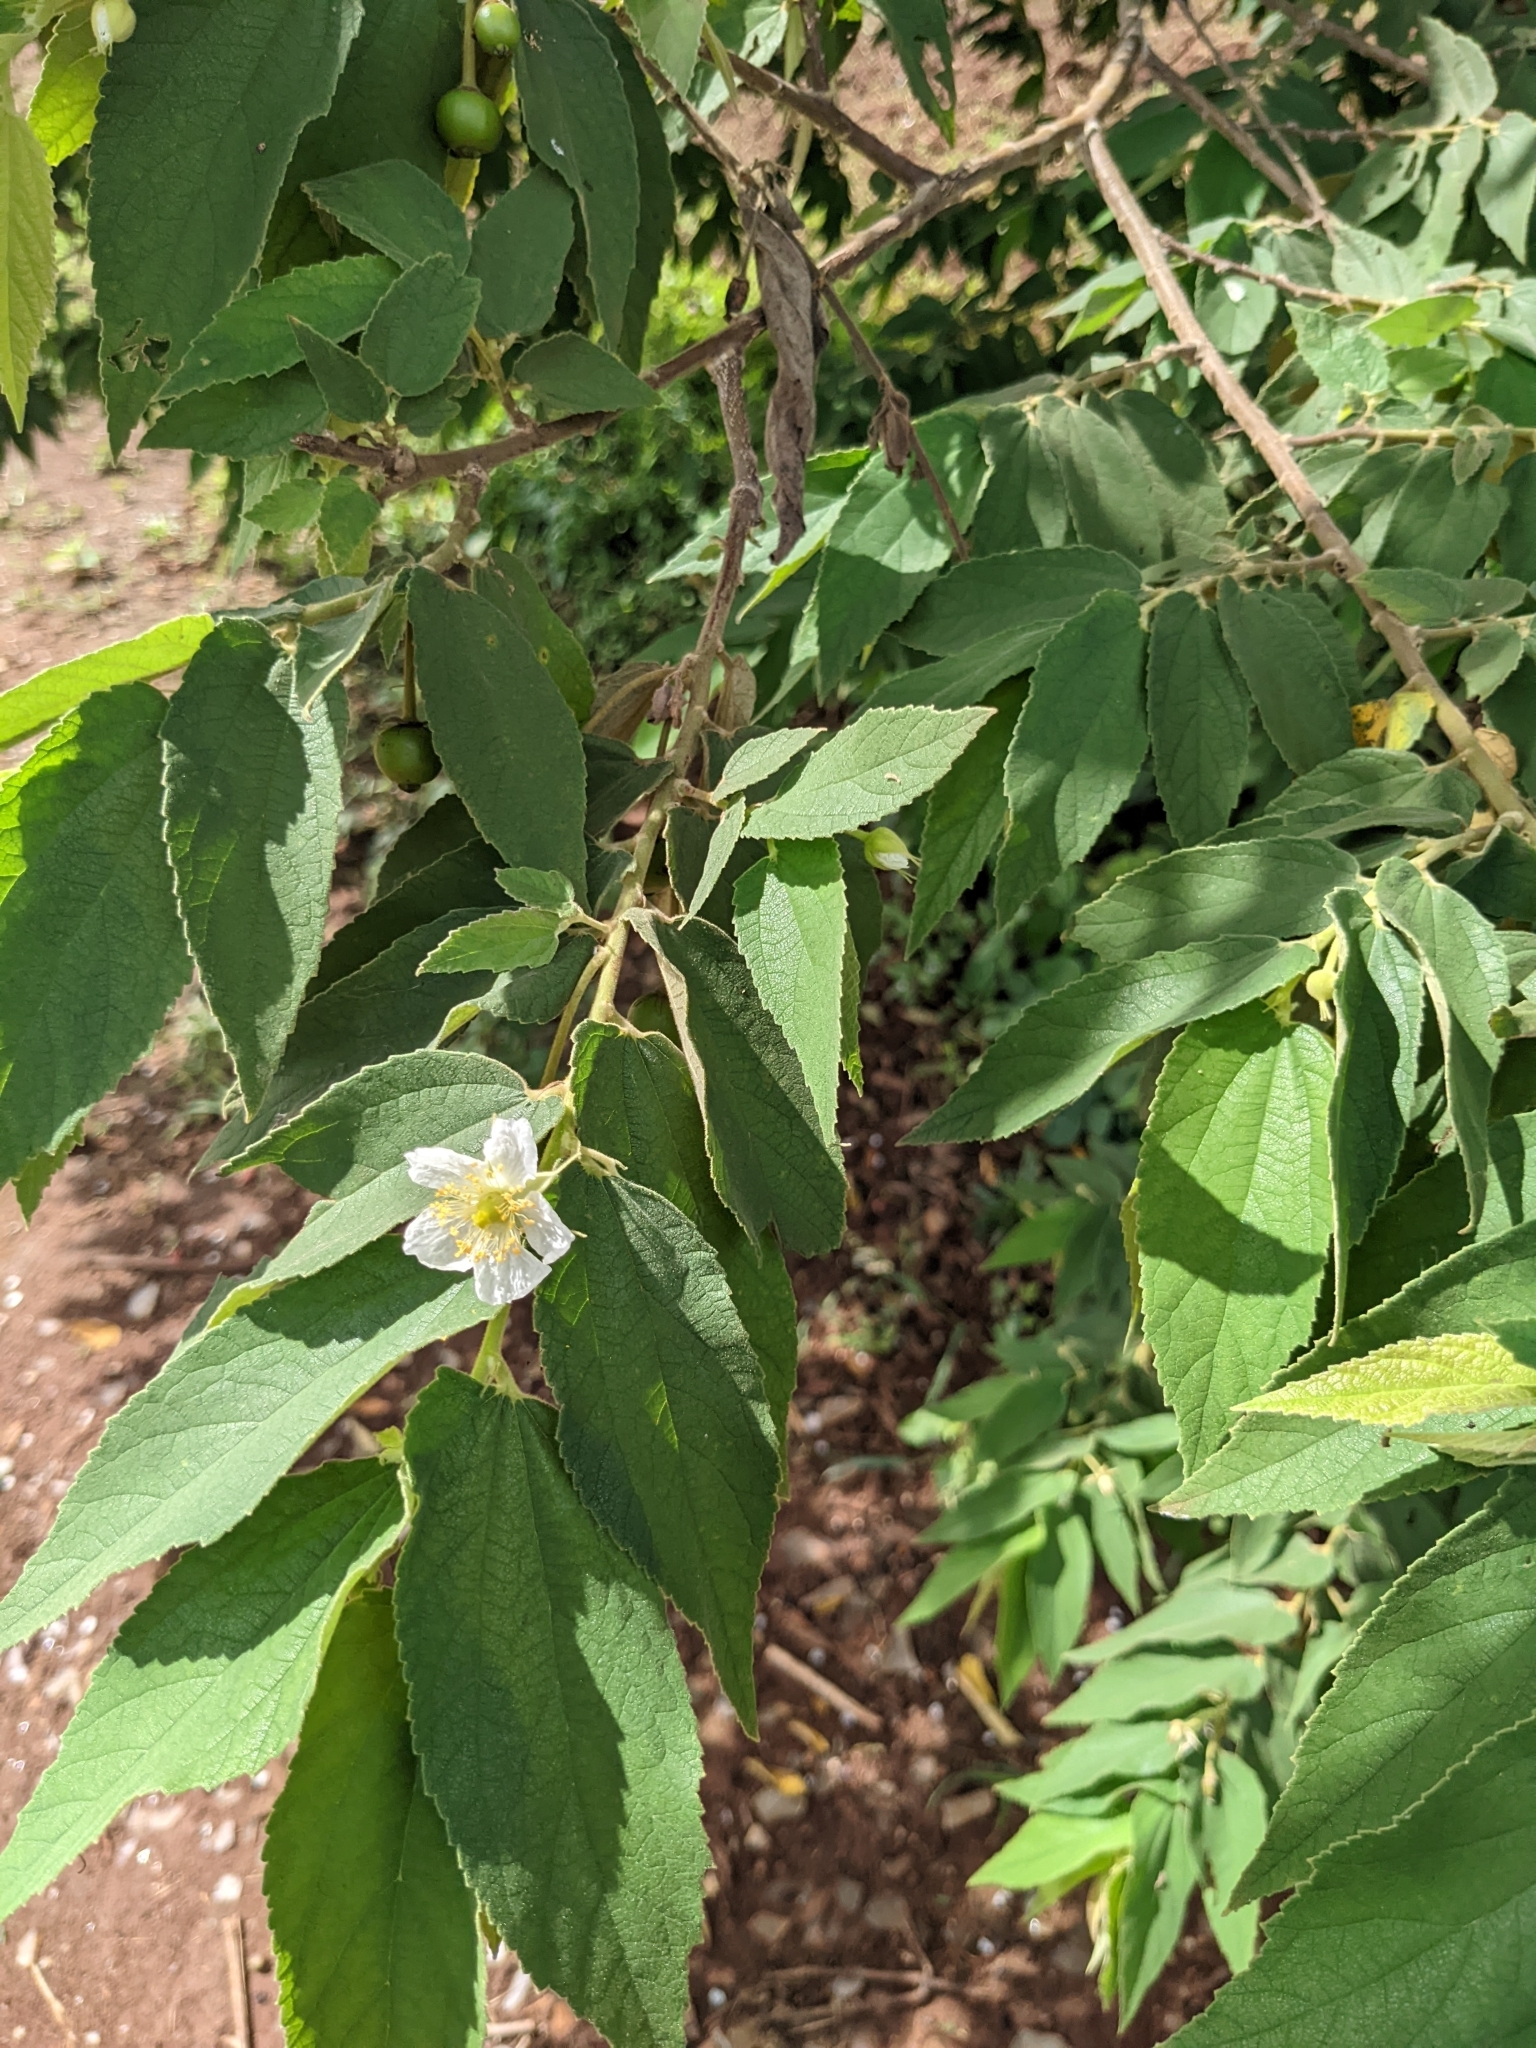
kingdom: Plantae
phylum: Tracheophyta
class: Magnoliopsida
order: Malvales
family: Muntingiaceae
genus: Muntingia
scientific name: Muntingia calabura
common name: Strawberrytree
